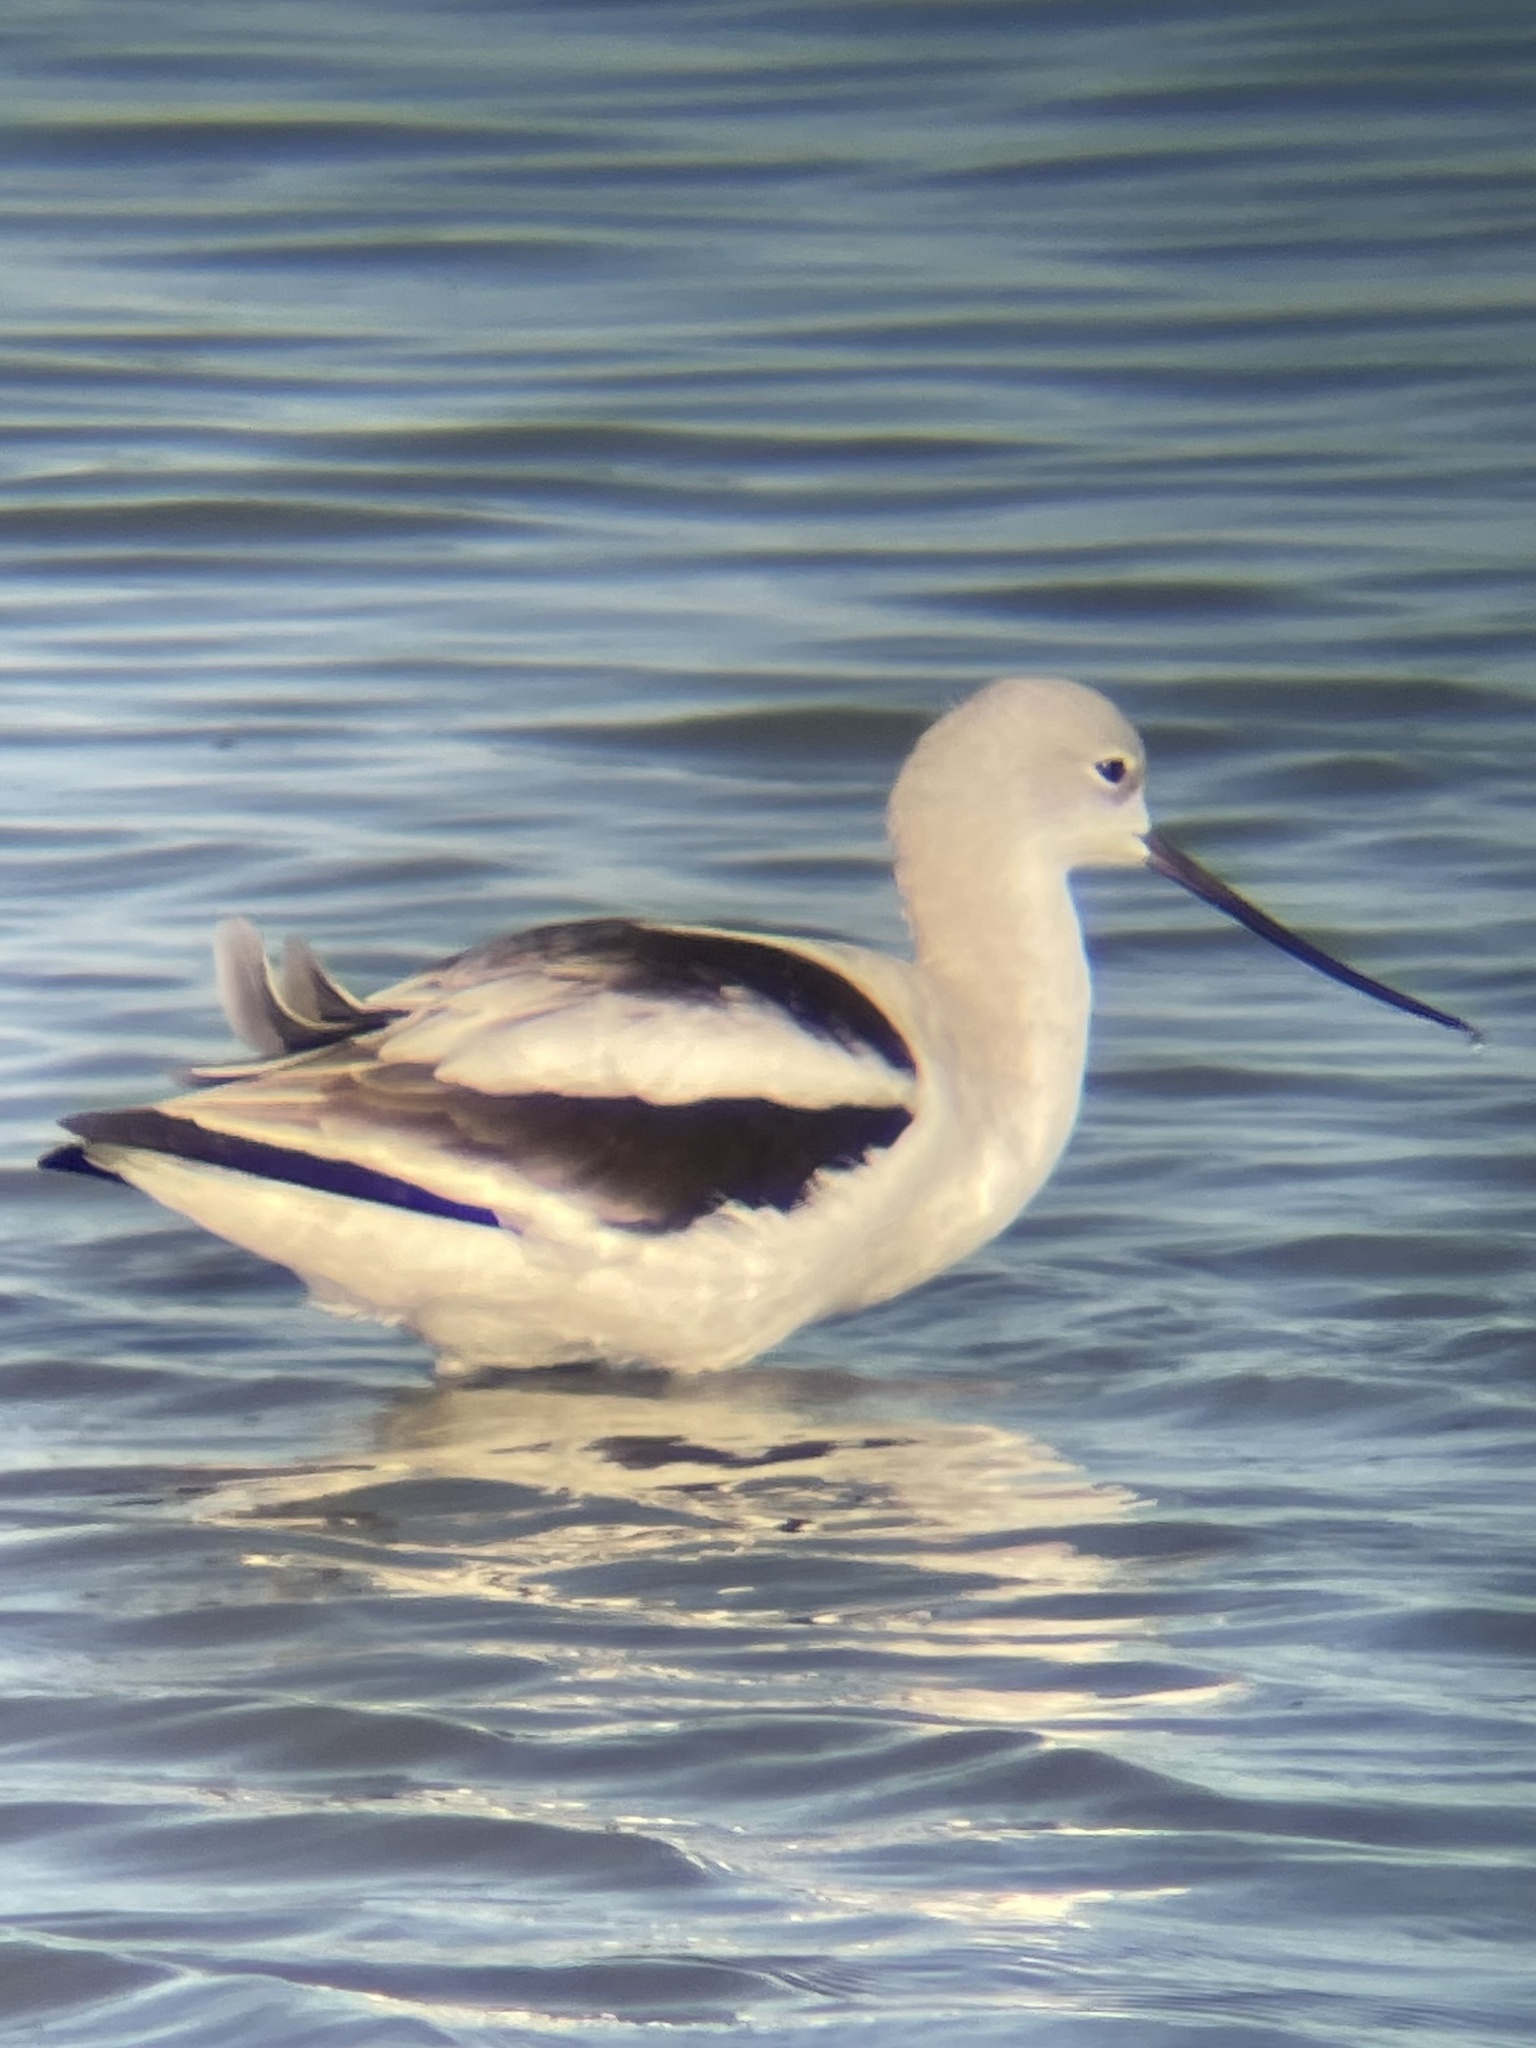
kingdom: Animalia
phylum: Chordata
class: Aves
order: Charadriiformes
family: Recurvirostridae
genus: Recurvirostra
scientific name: Recurvirostra americana
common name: American avocet
